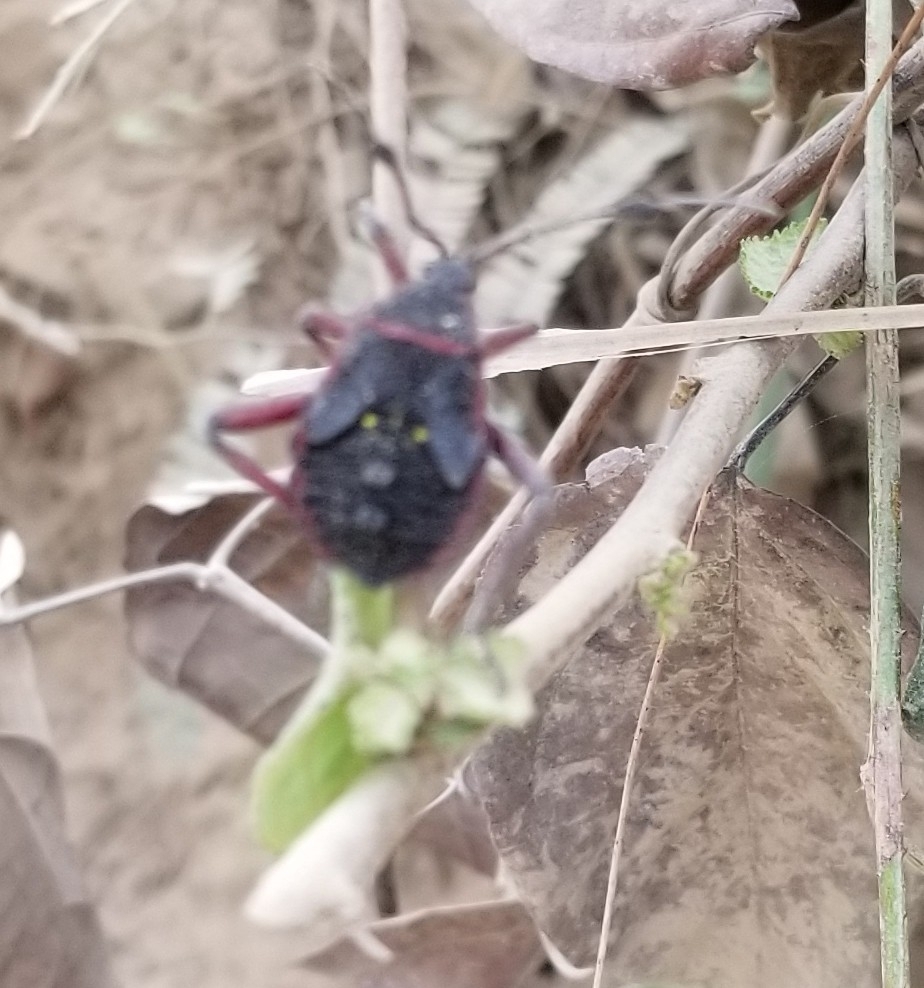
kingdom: Animalia
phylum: Arthropoda
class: Insecta
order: Hemiptera
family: Coreidae
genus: Pachylis
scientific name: Pachylis pharaonis
